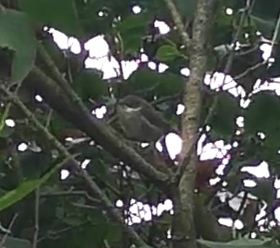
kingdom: Animalia
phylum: Chordata
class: Aves
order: Passeriformes
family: Sylviidae
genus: Sylvia
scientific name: Sylvia curruca
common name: Lesser whitethroat
